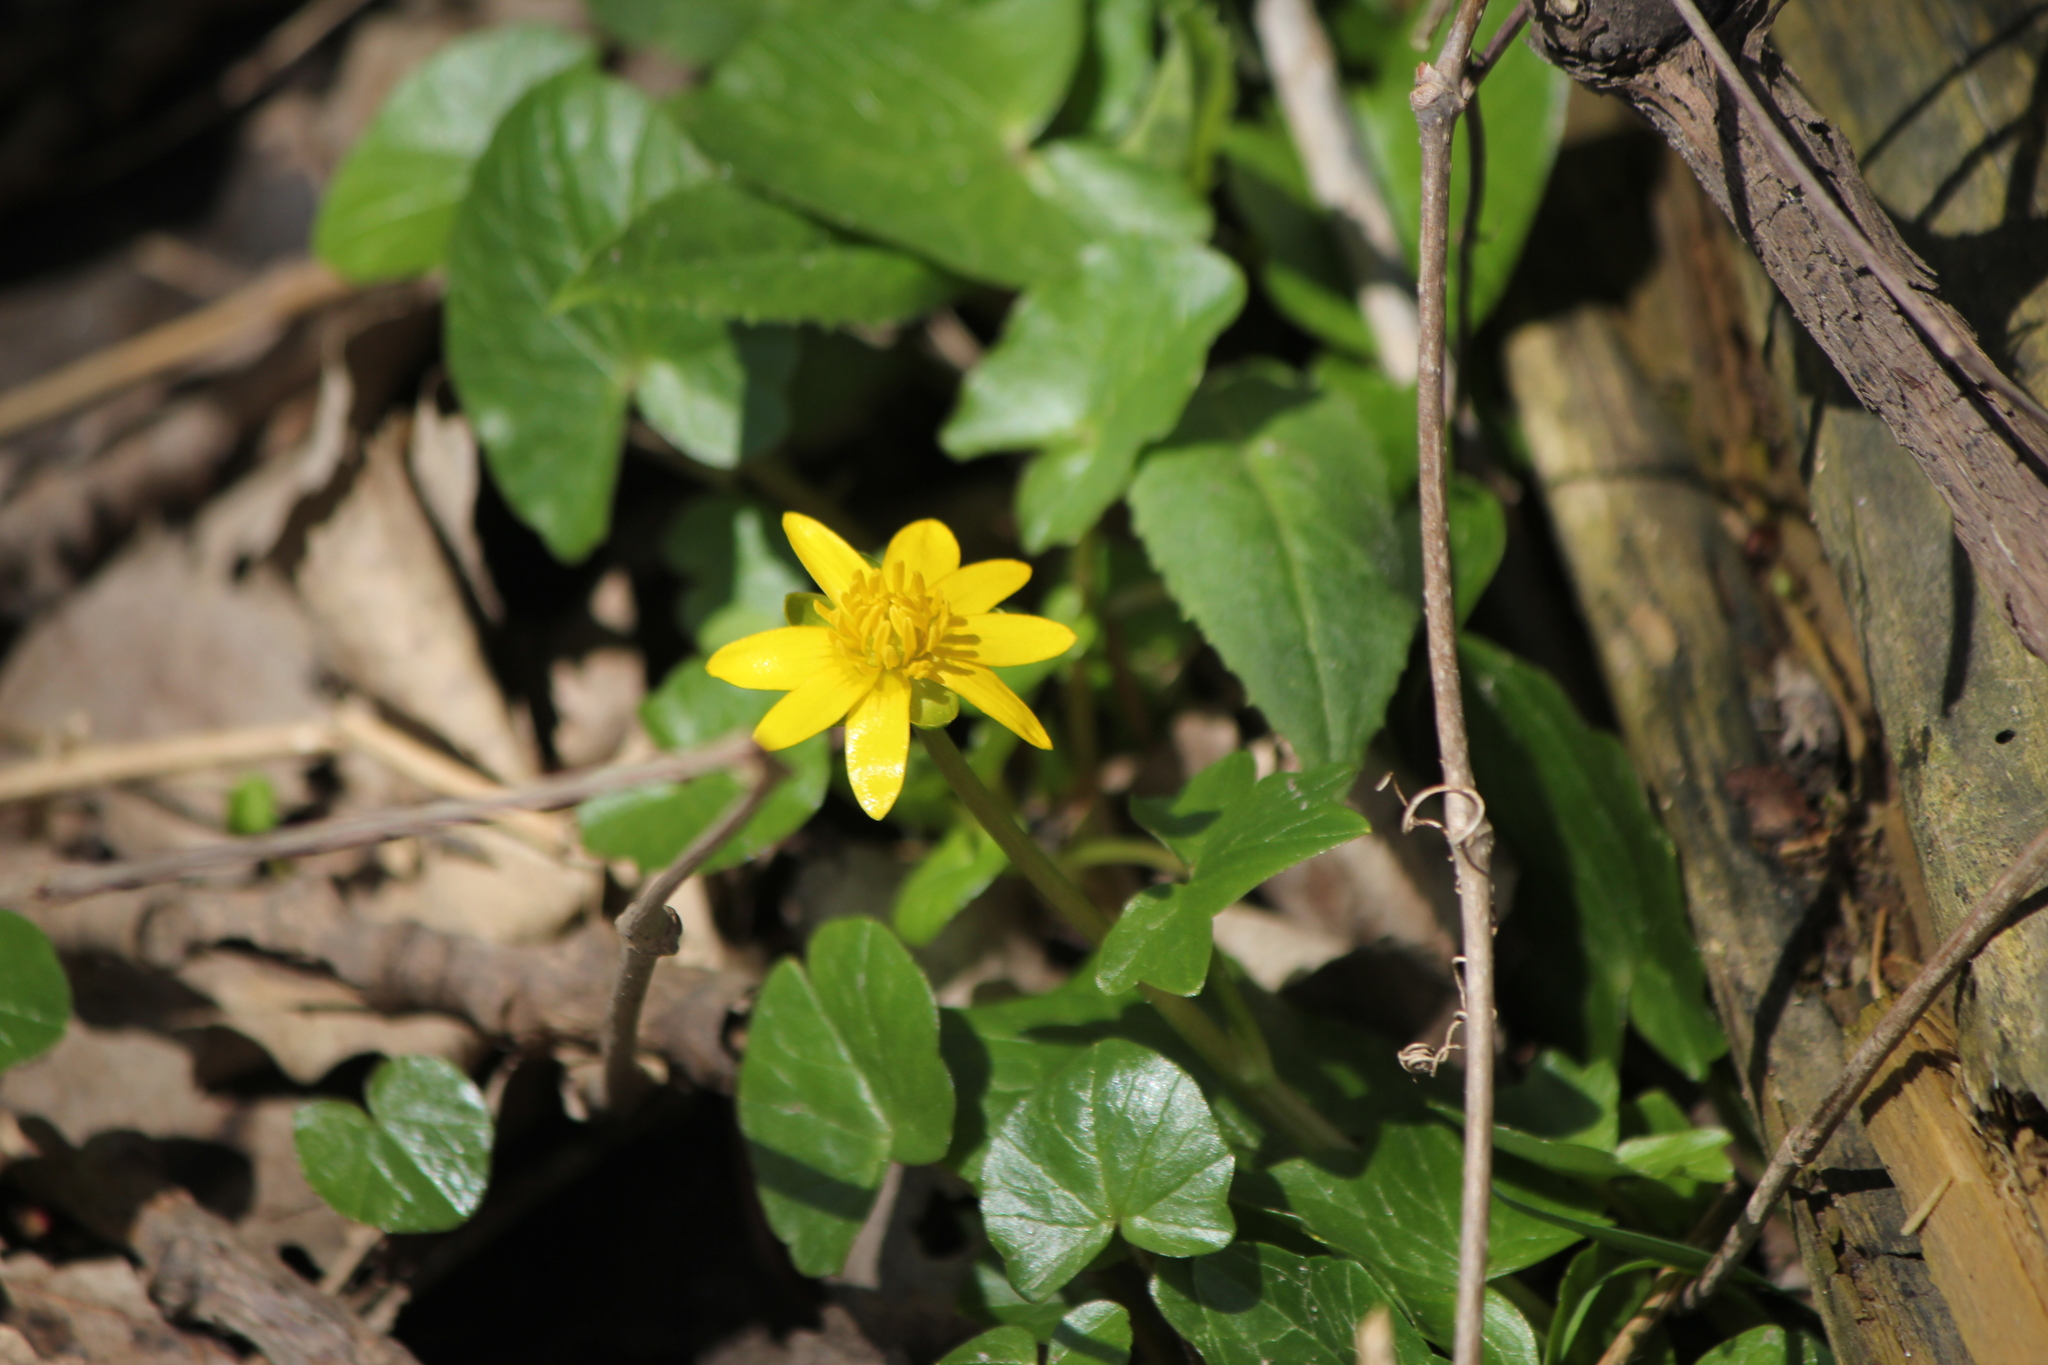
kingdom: Plantae
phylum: Tracheophyta
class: Magnoliopsida
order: Ranunculales
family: Ranunculaceae
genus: Ficaria
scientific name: Ficaria verna
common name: Lesser celandine
